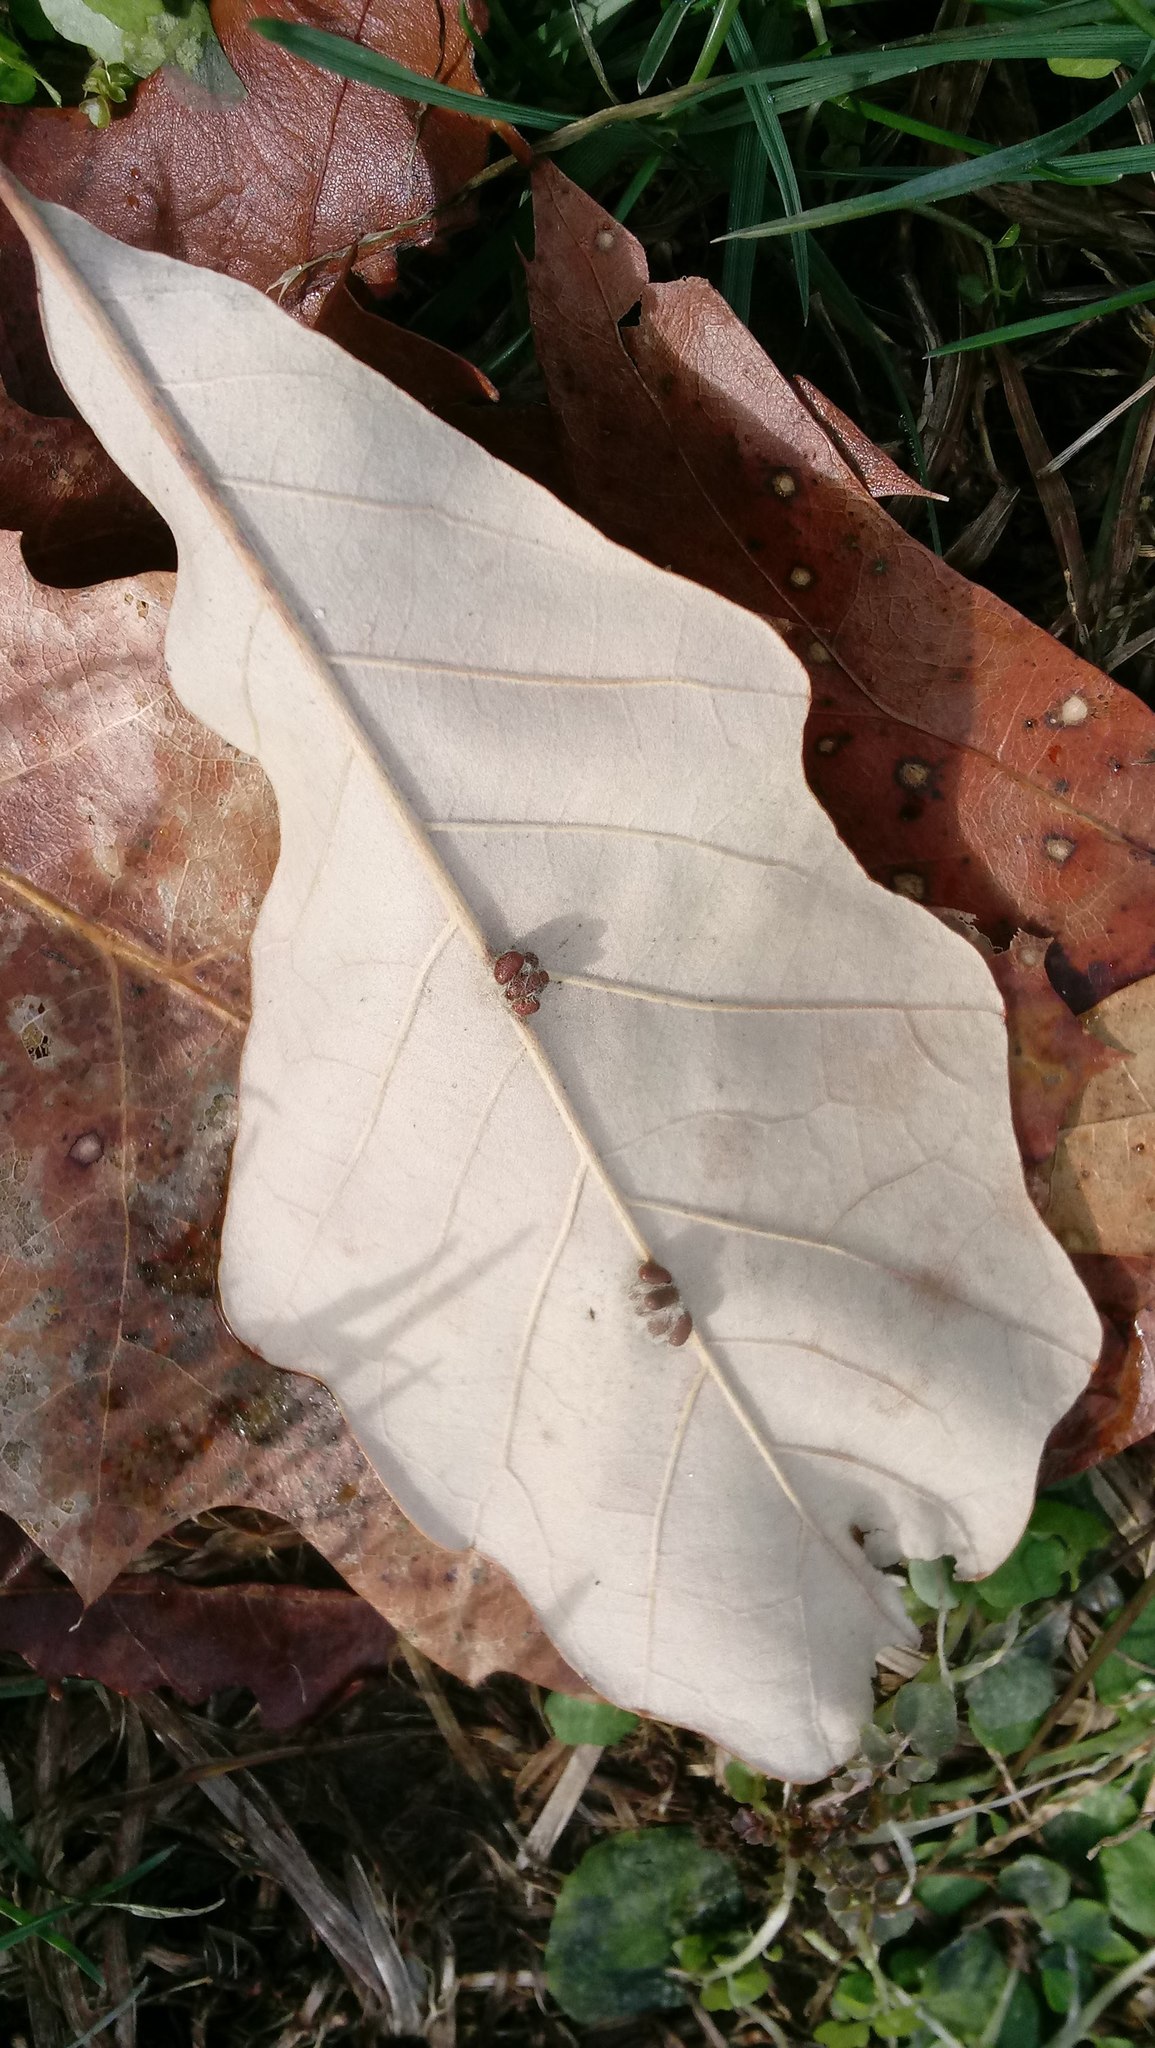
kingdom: Animalia
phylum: Arthropoda
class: Insecta
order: Hymenoptera
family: Cynipidae
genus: Andricus
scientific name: Andricus Druon ignotum
